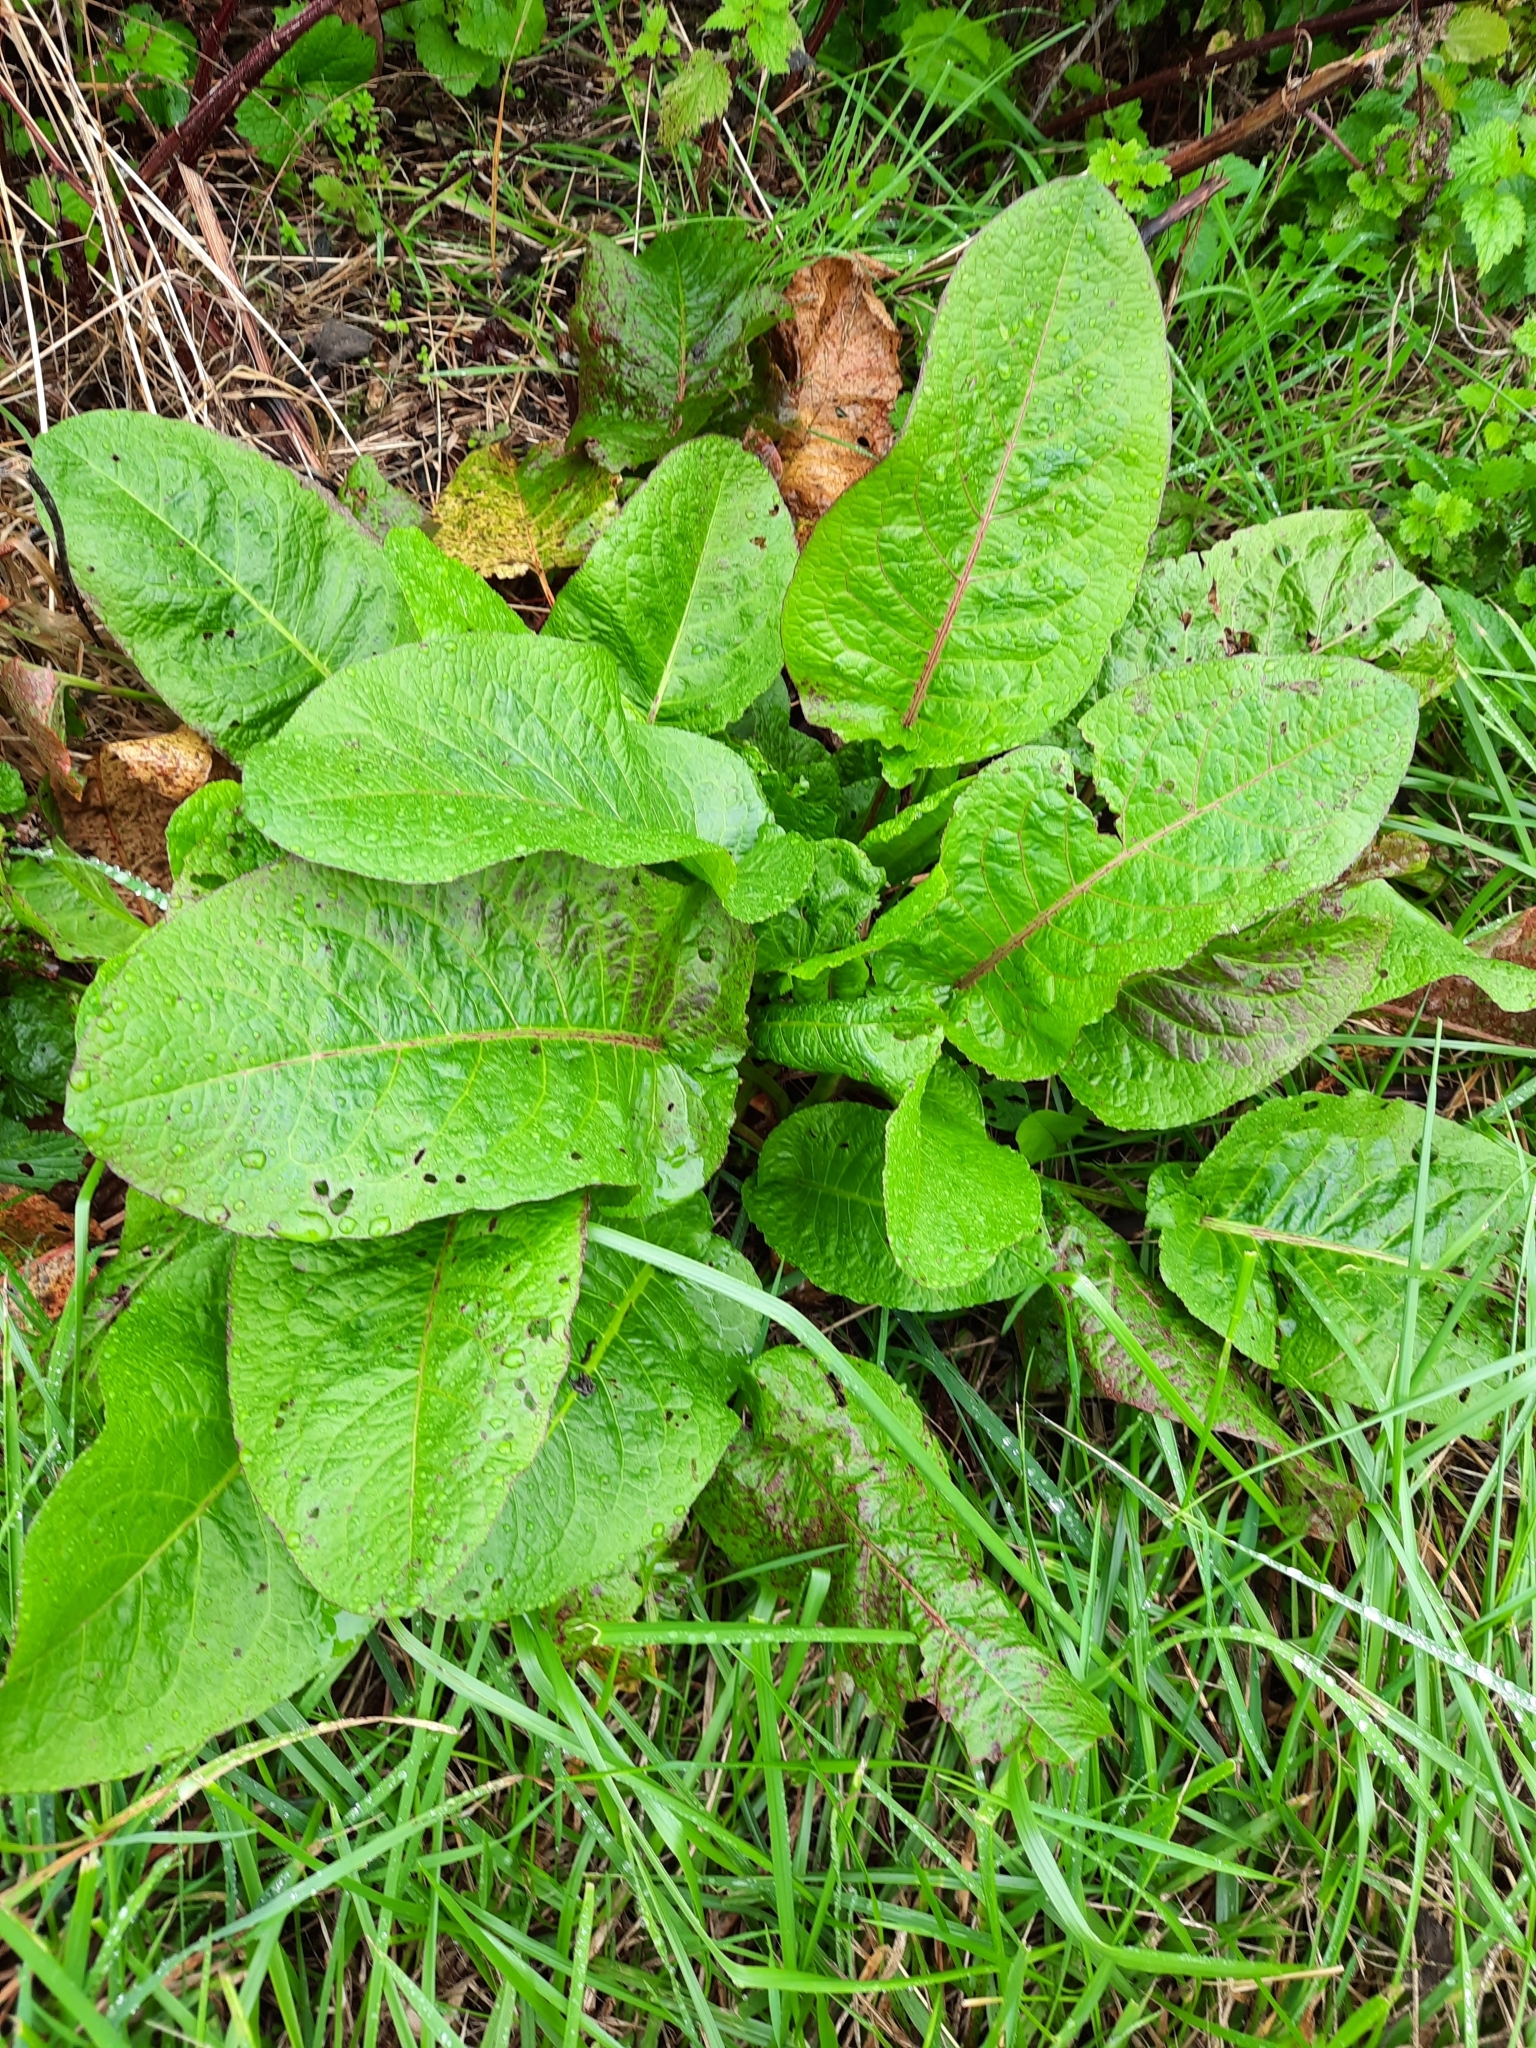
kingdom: Plantae
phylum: Tracheophyta
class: Magnoliopsida
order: Caryophyllales
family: Polygonaceae
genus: Rumex
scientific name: Rumex obtusifolius
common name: Bitter dock
